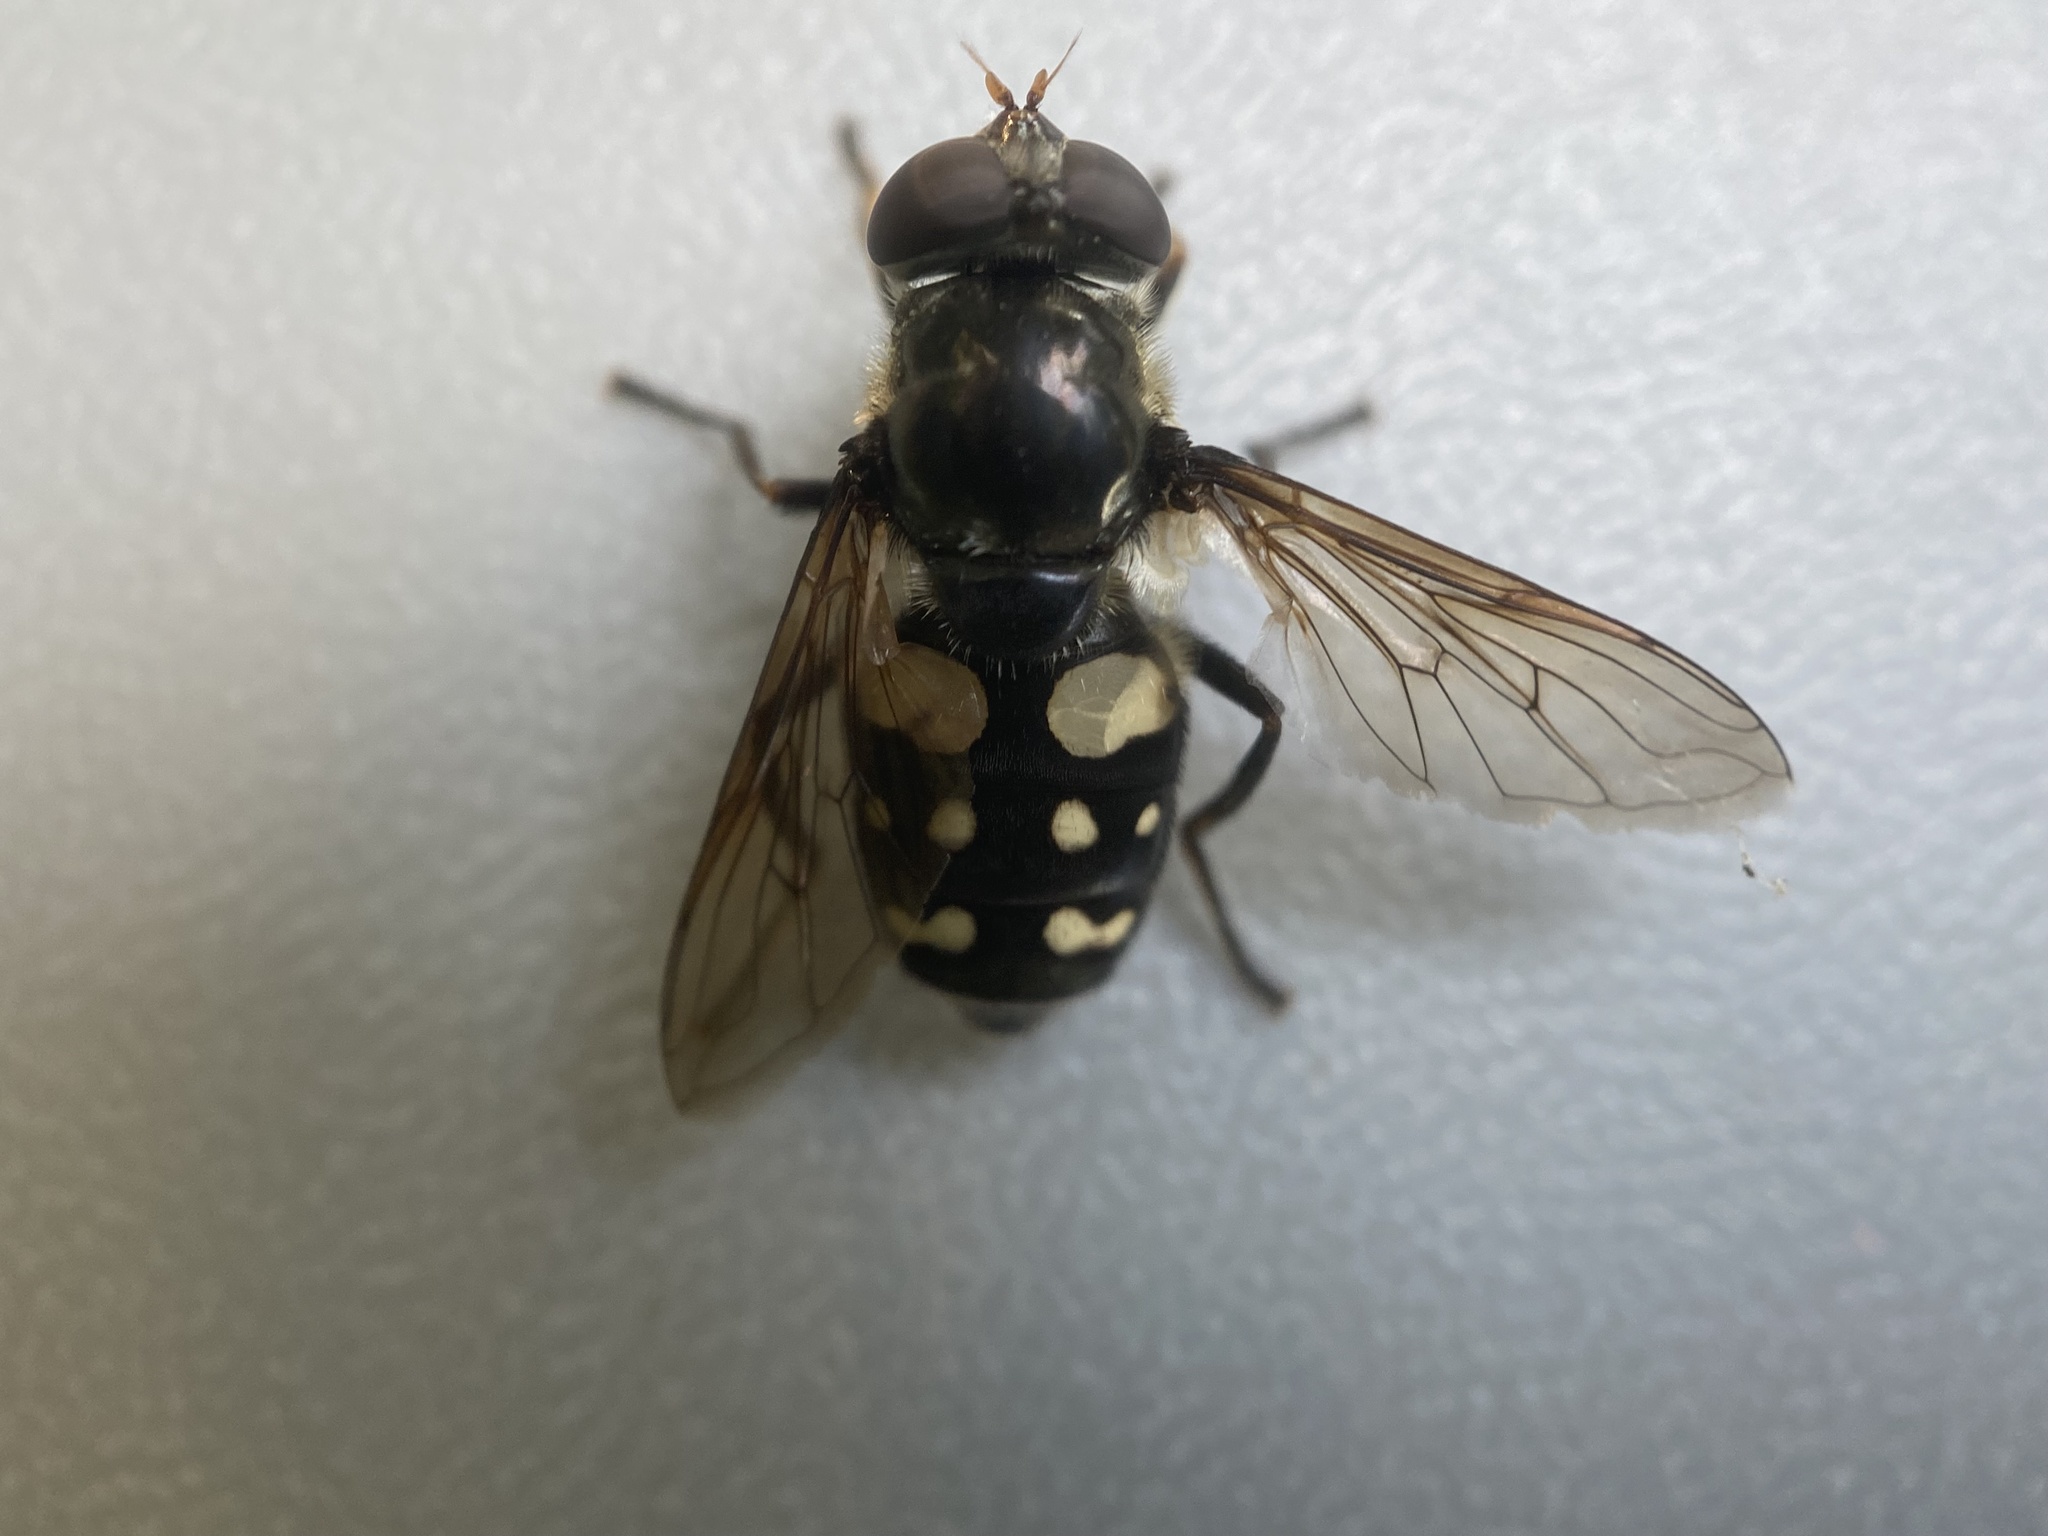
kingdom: Animalia
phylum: Arthropoda
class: Insecta
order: Diptera
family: Syrphidae
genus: Sericomyia
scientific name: Sericomyia lata
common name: White-spotted pond fly
